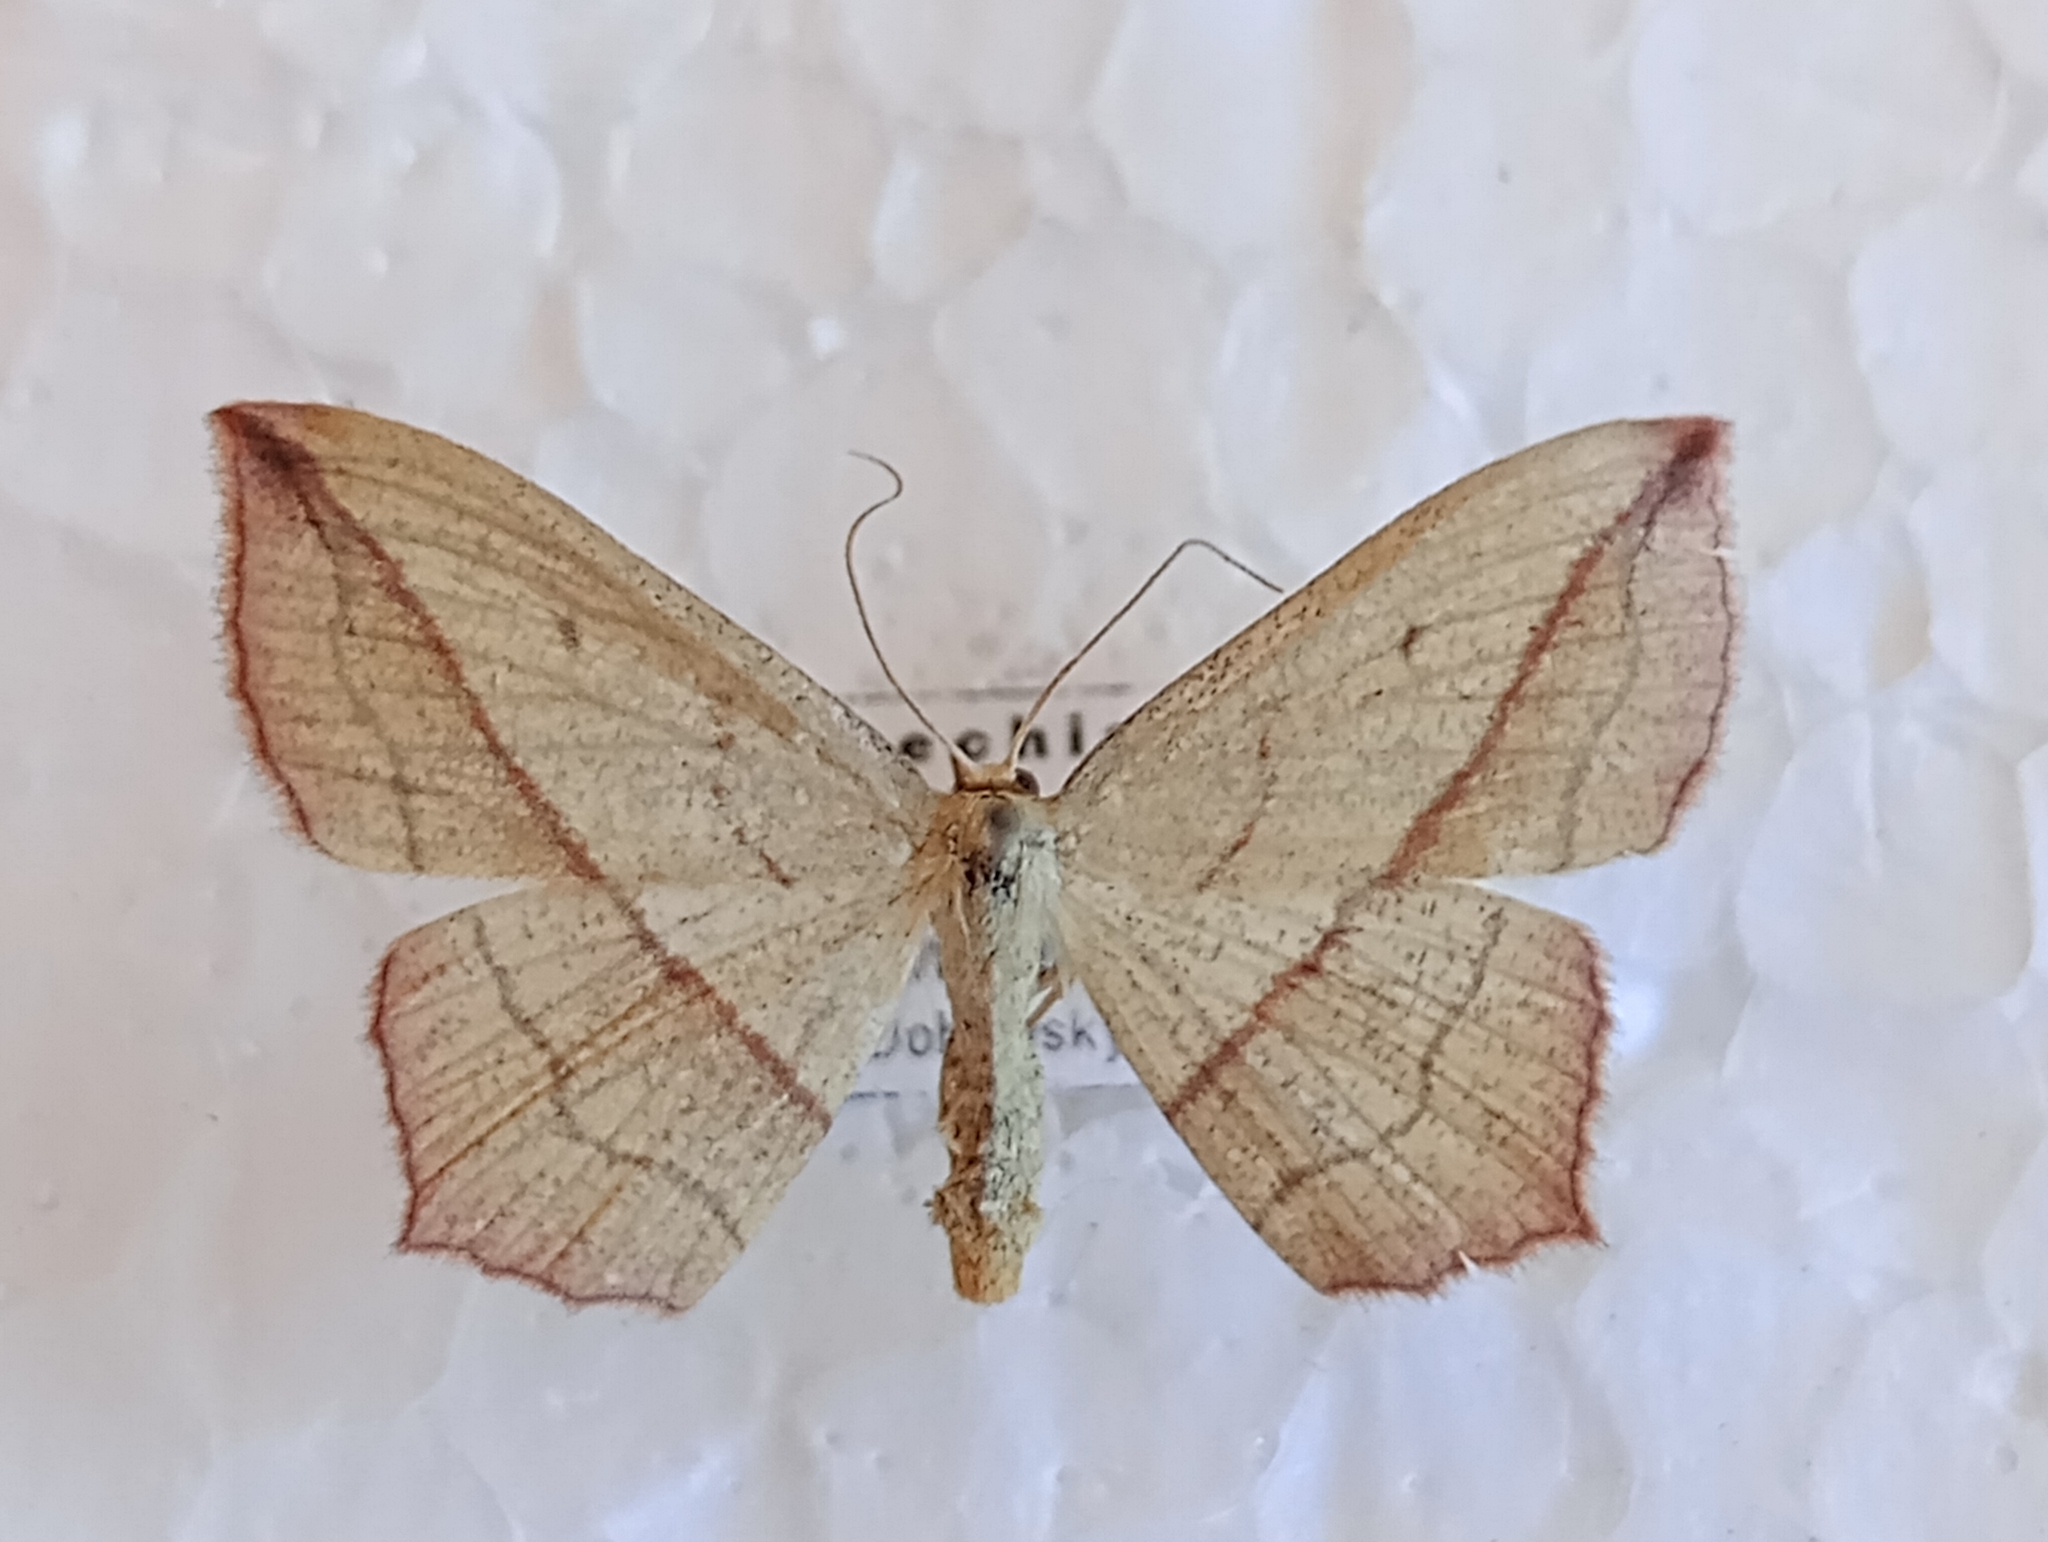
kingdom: Animalia
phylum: Arthropoda
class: Insecta
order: Lepidoptera
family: Geometridae
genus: Timandra
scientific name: Timandra comae
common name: Blood-vein
